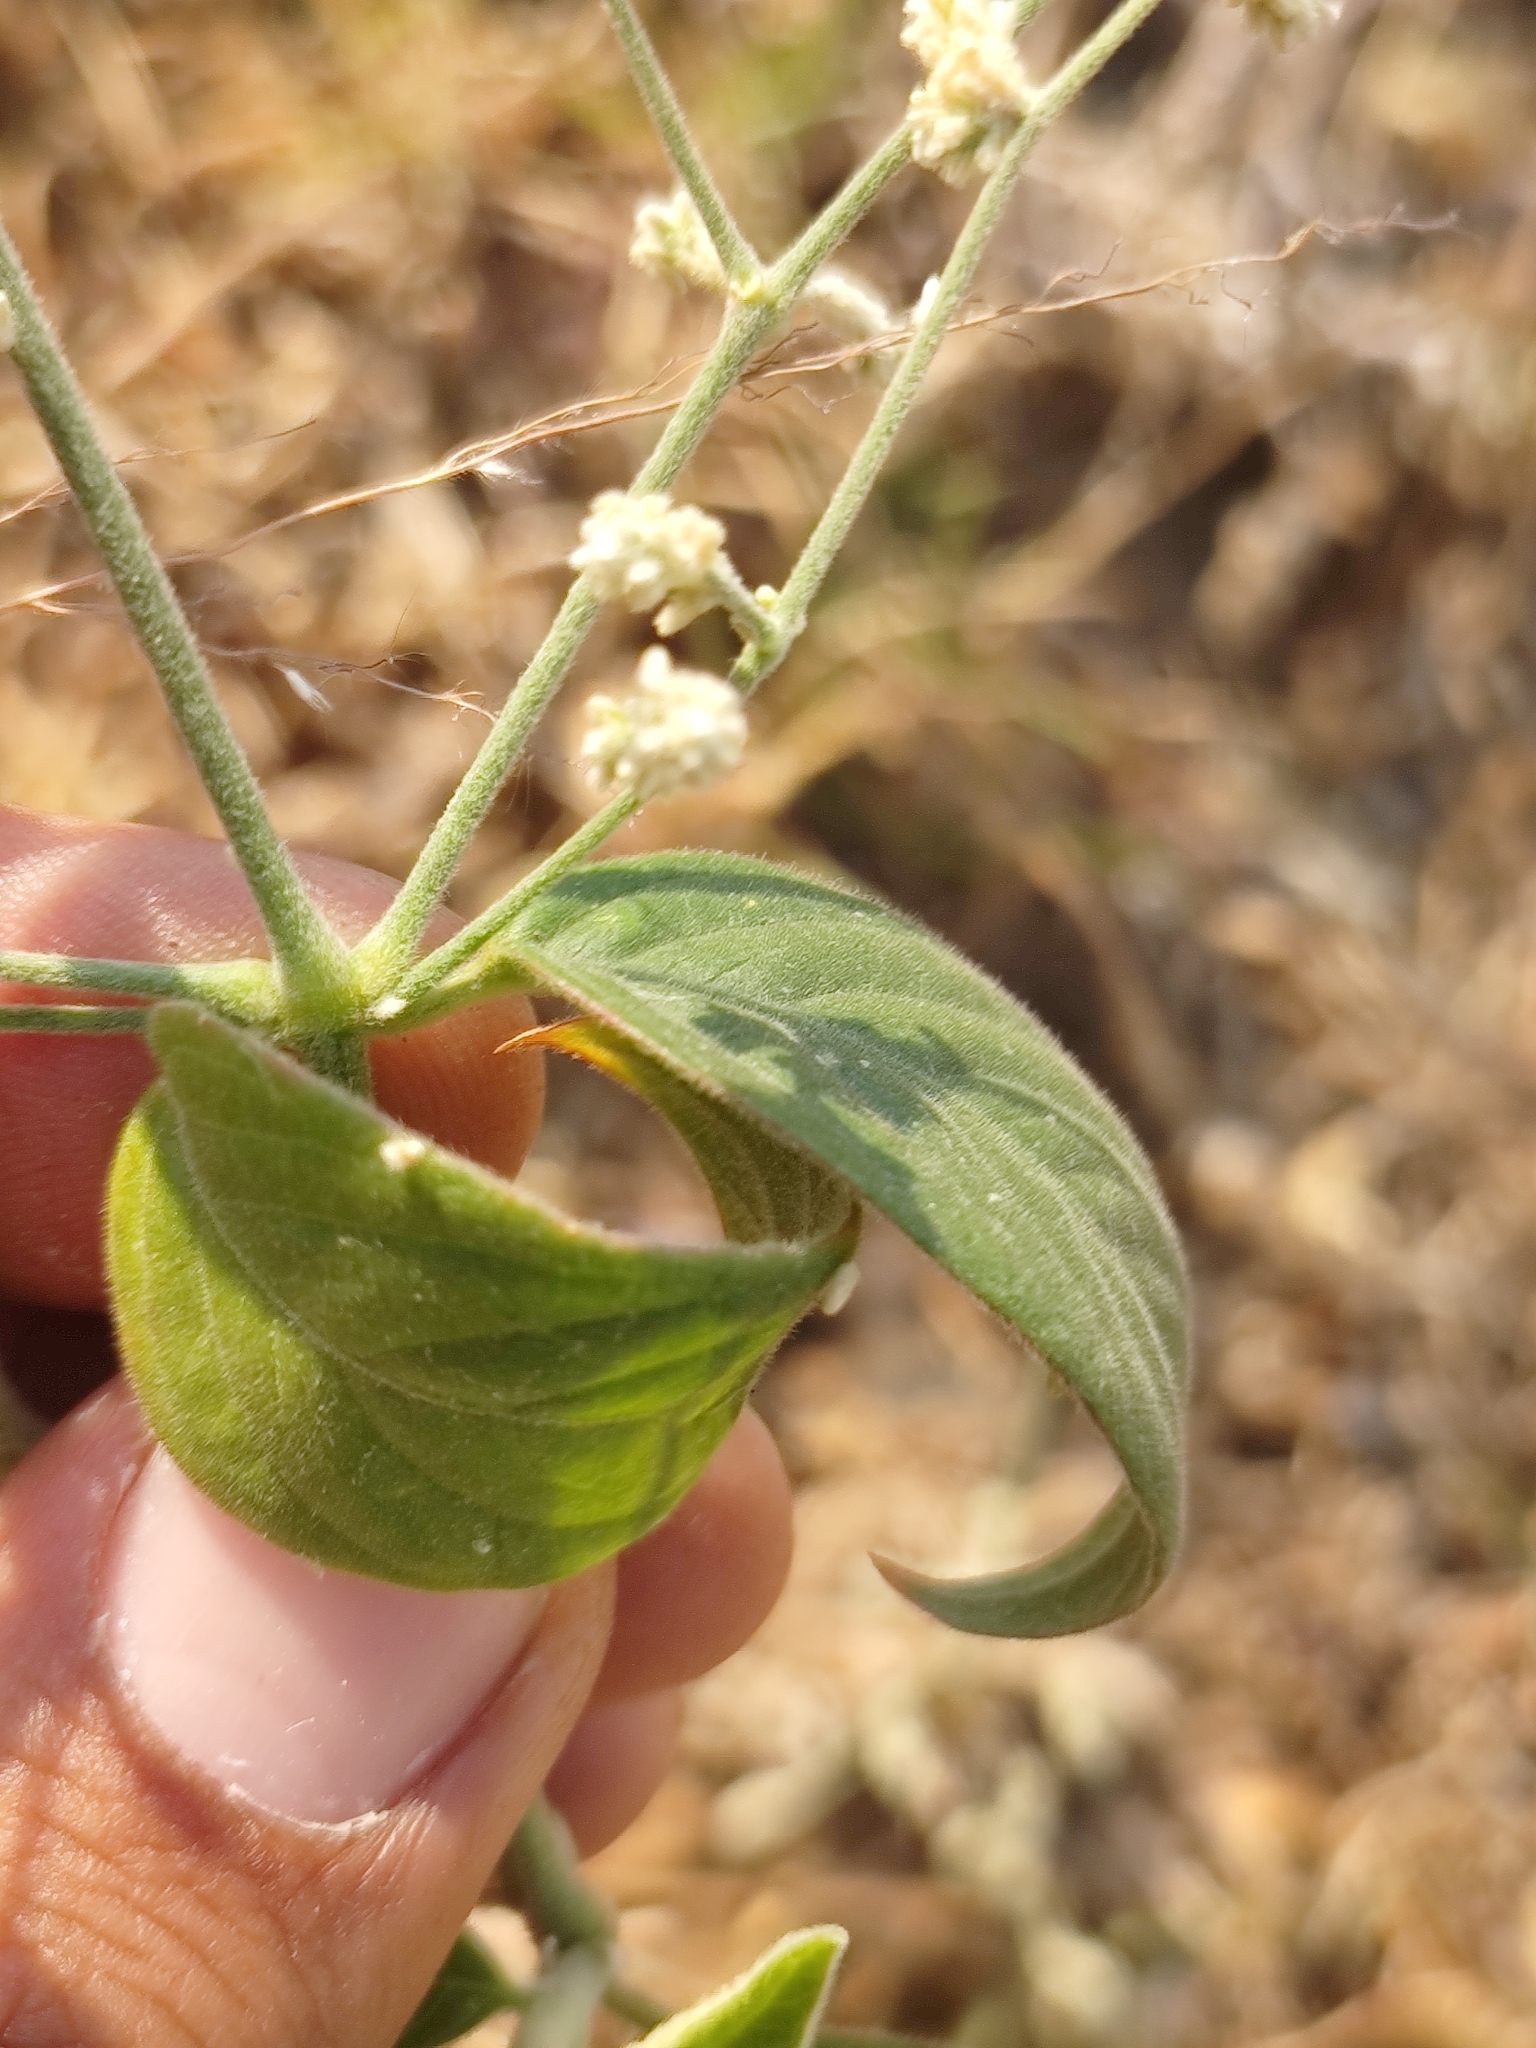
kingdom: Plantae
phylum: Tracheophyta
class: Magnoliopsida
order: Caryophyllales
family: Amaranthaceae
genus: Iresine
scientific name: Iresine diffusa
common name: Juba's-bush
